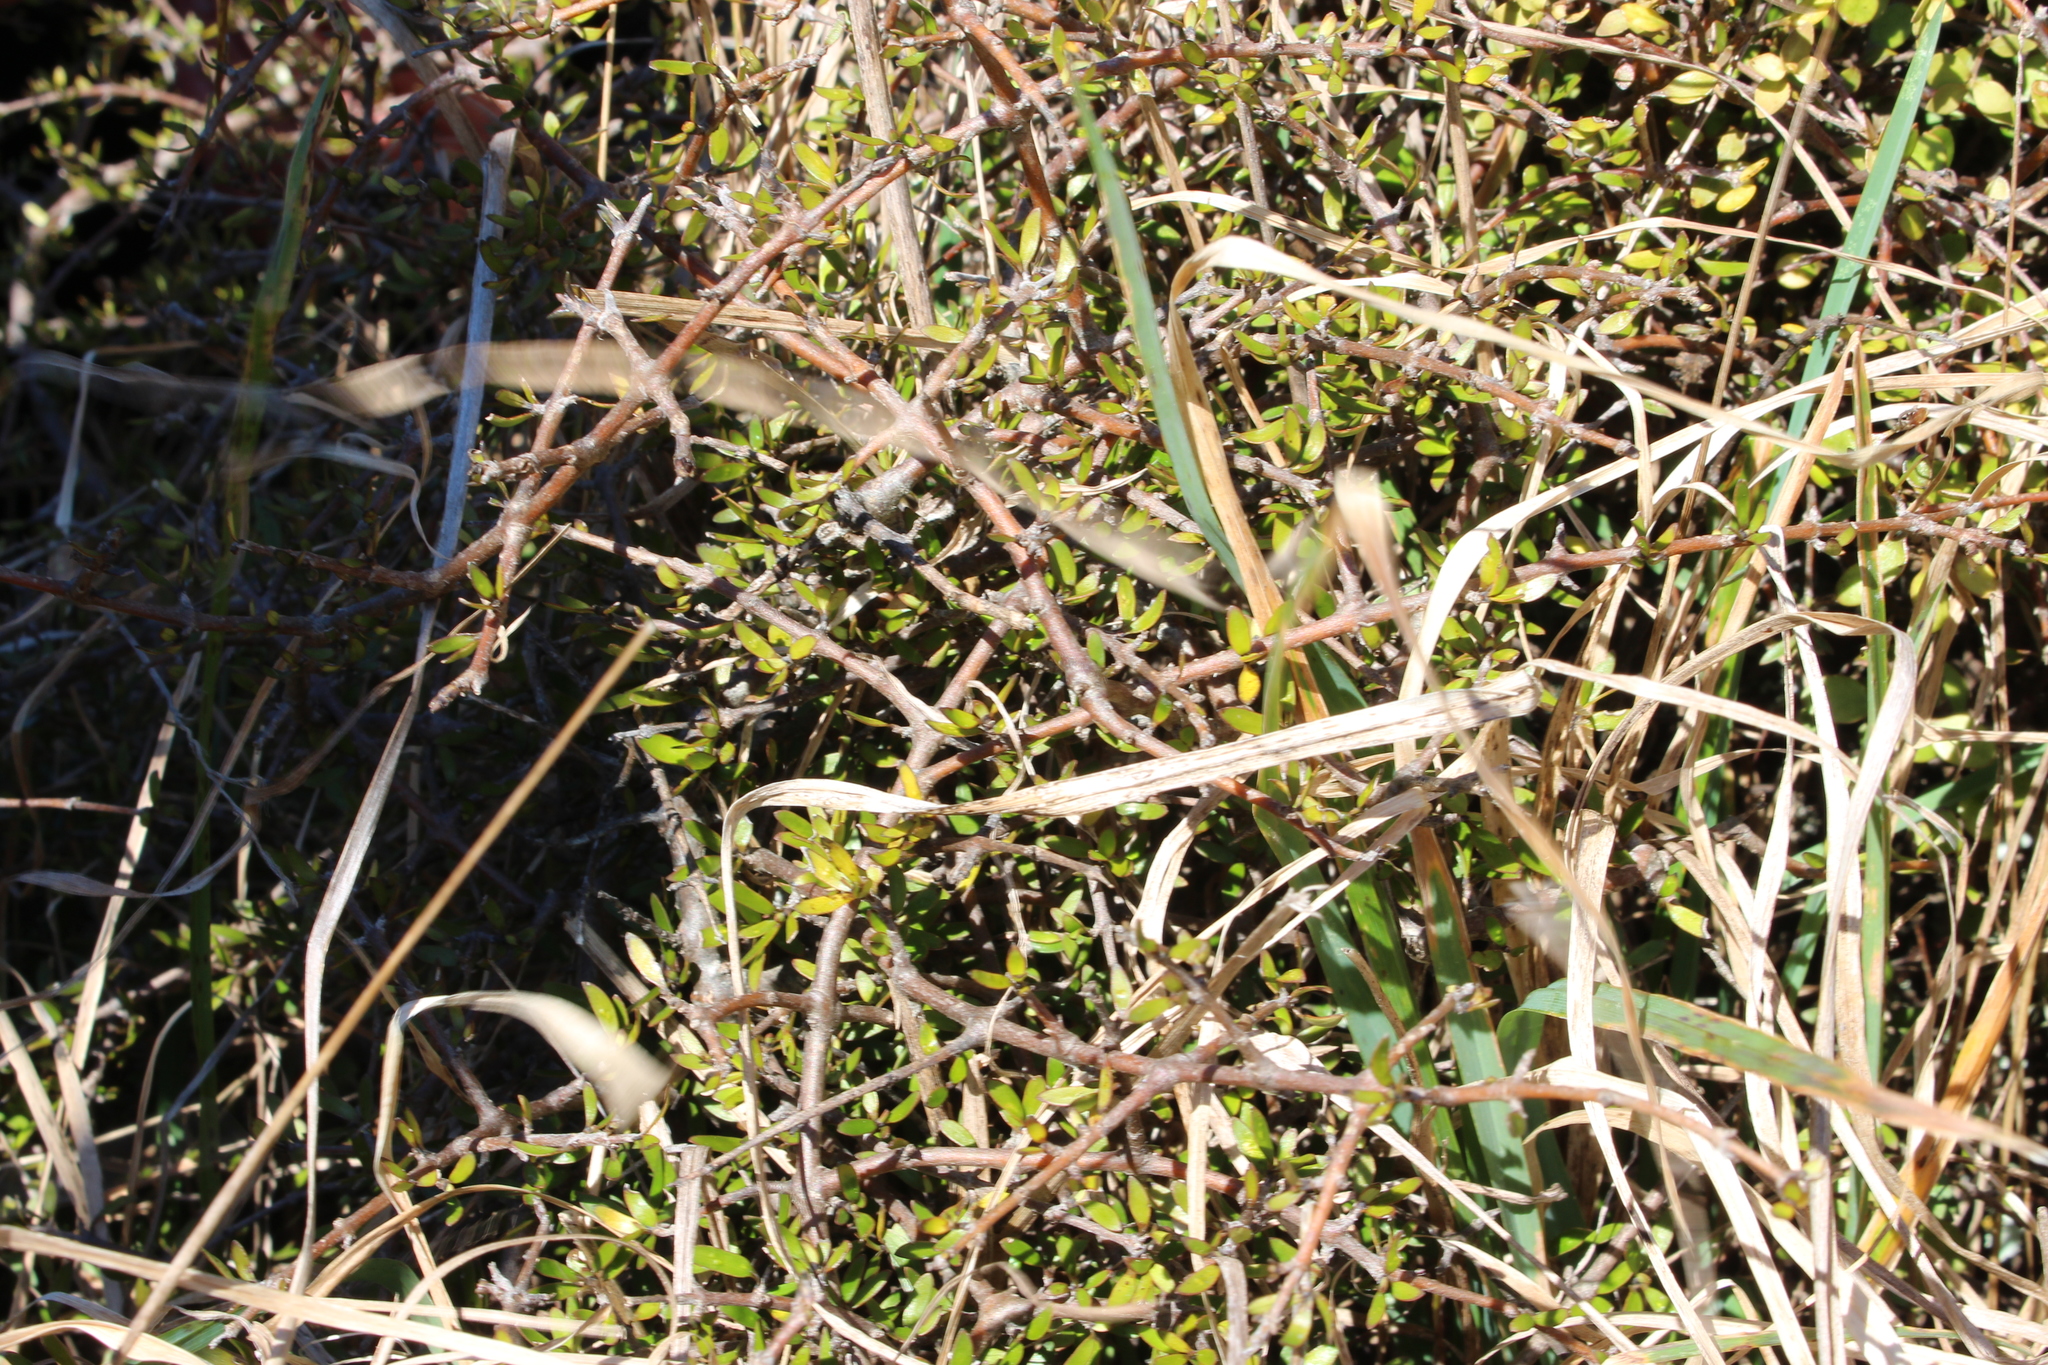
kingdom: Plantae
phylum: Tracheophyta
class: Magnoliopsida
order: Gentianales
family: Rubiaceae
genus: Coprosma
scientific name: Coprosma propinqua
